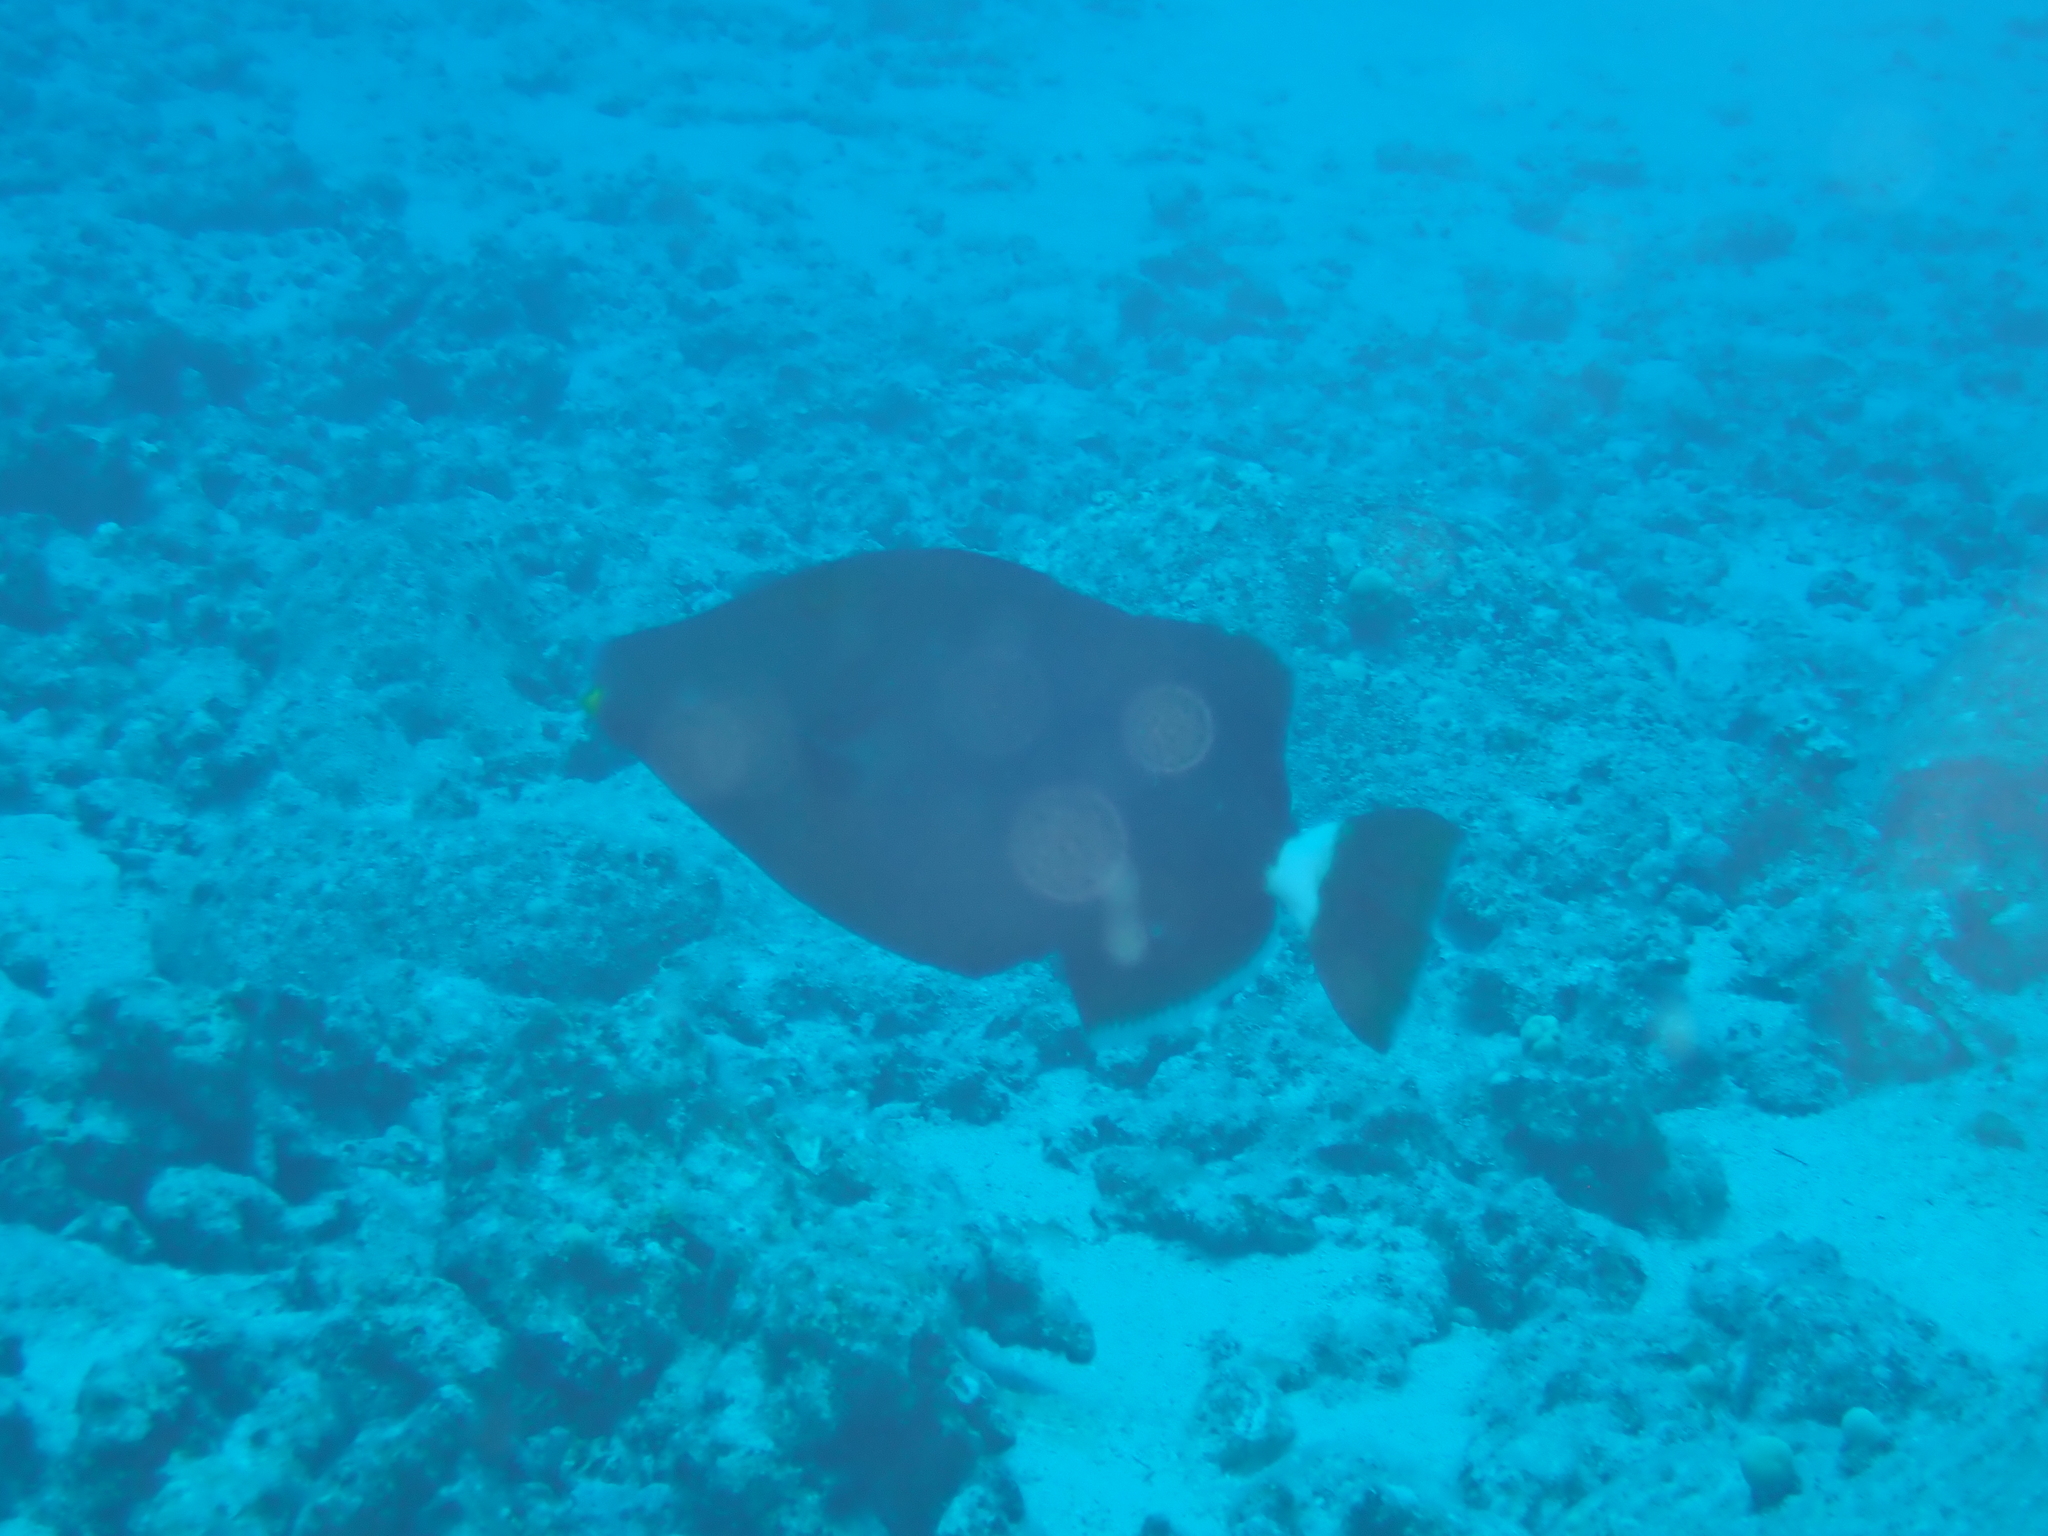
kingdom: Animalia
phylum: Chordata
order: Tetraodontiformes
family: Balistidae
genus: Sufflamen
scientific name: Sufflamen fraenatum
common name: Bridle triggerfish
